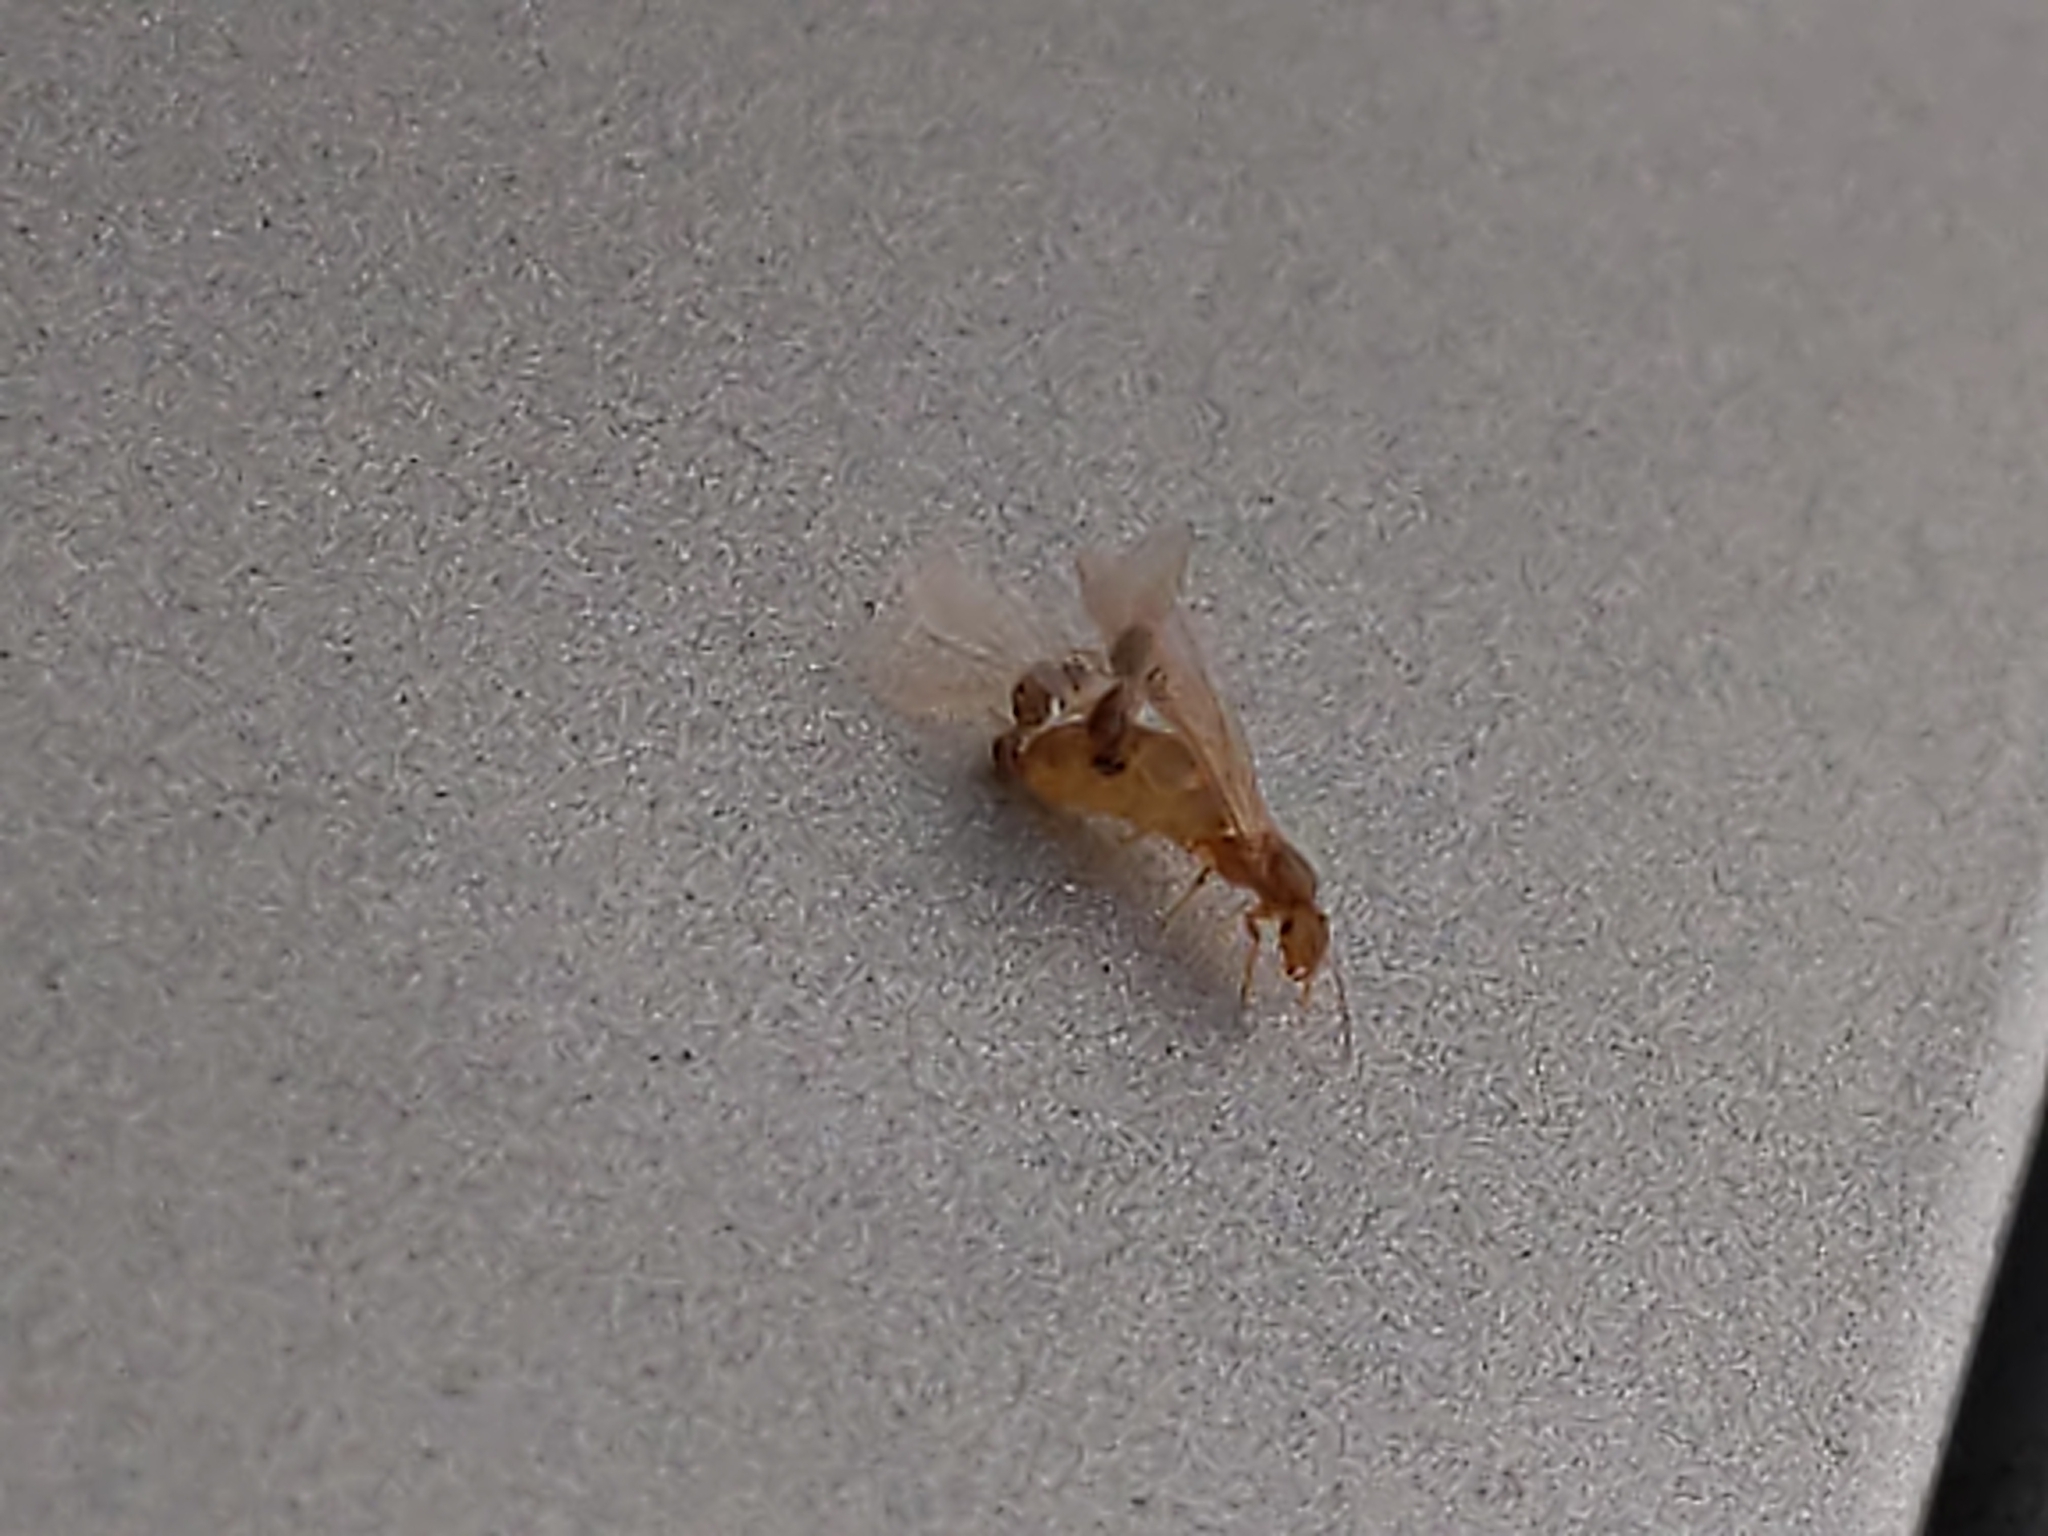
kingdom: Animalia
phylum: Arthropoda
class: Insecta
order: Hymenoptera
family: Formicidae
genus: Brachymyrmex
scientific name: Brachymyrmex depilis
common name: Hairless rover ant
